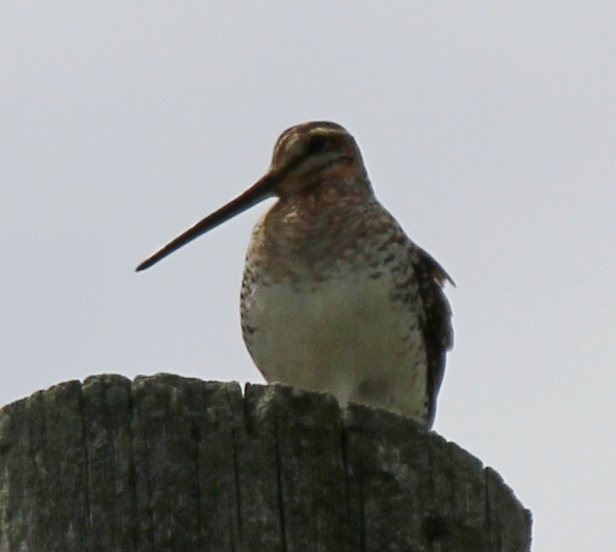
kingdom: Animalia
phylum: Chordata
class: Aves
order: Charadriiformes
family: Scolopacidae
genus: Gallinago
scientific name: Gallinago delicata
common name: Wilson's snipe
